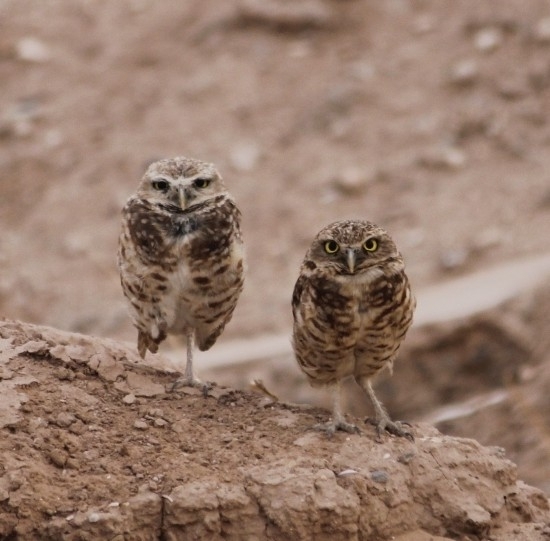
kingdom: Animalia
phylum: Chordata
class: Aves
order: Strigiformes
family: Strigidae
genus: Athene
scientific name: Athene cunicularia
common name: Burrowing owl
